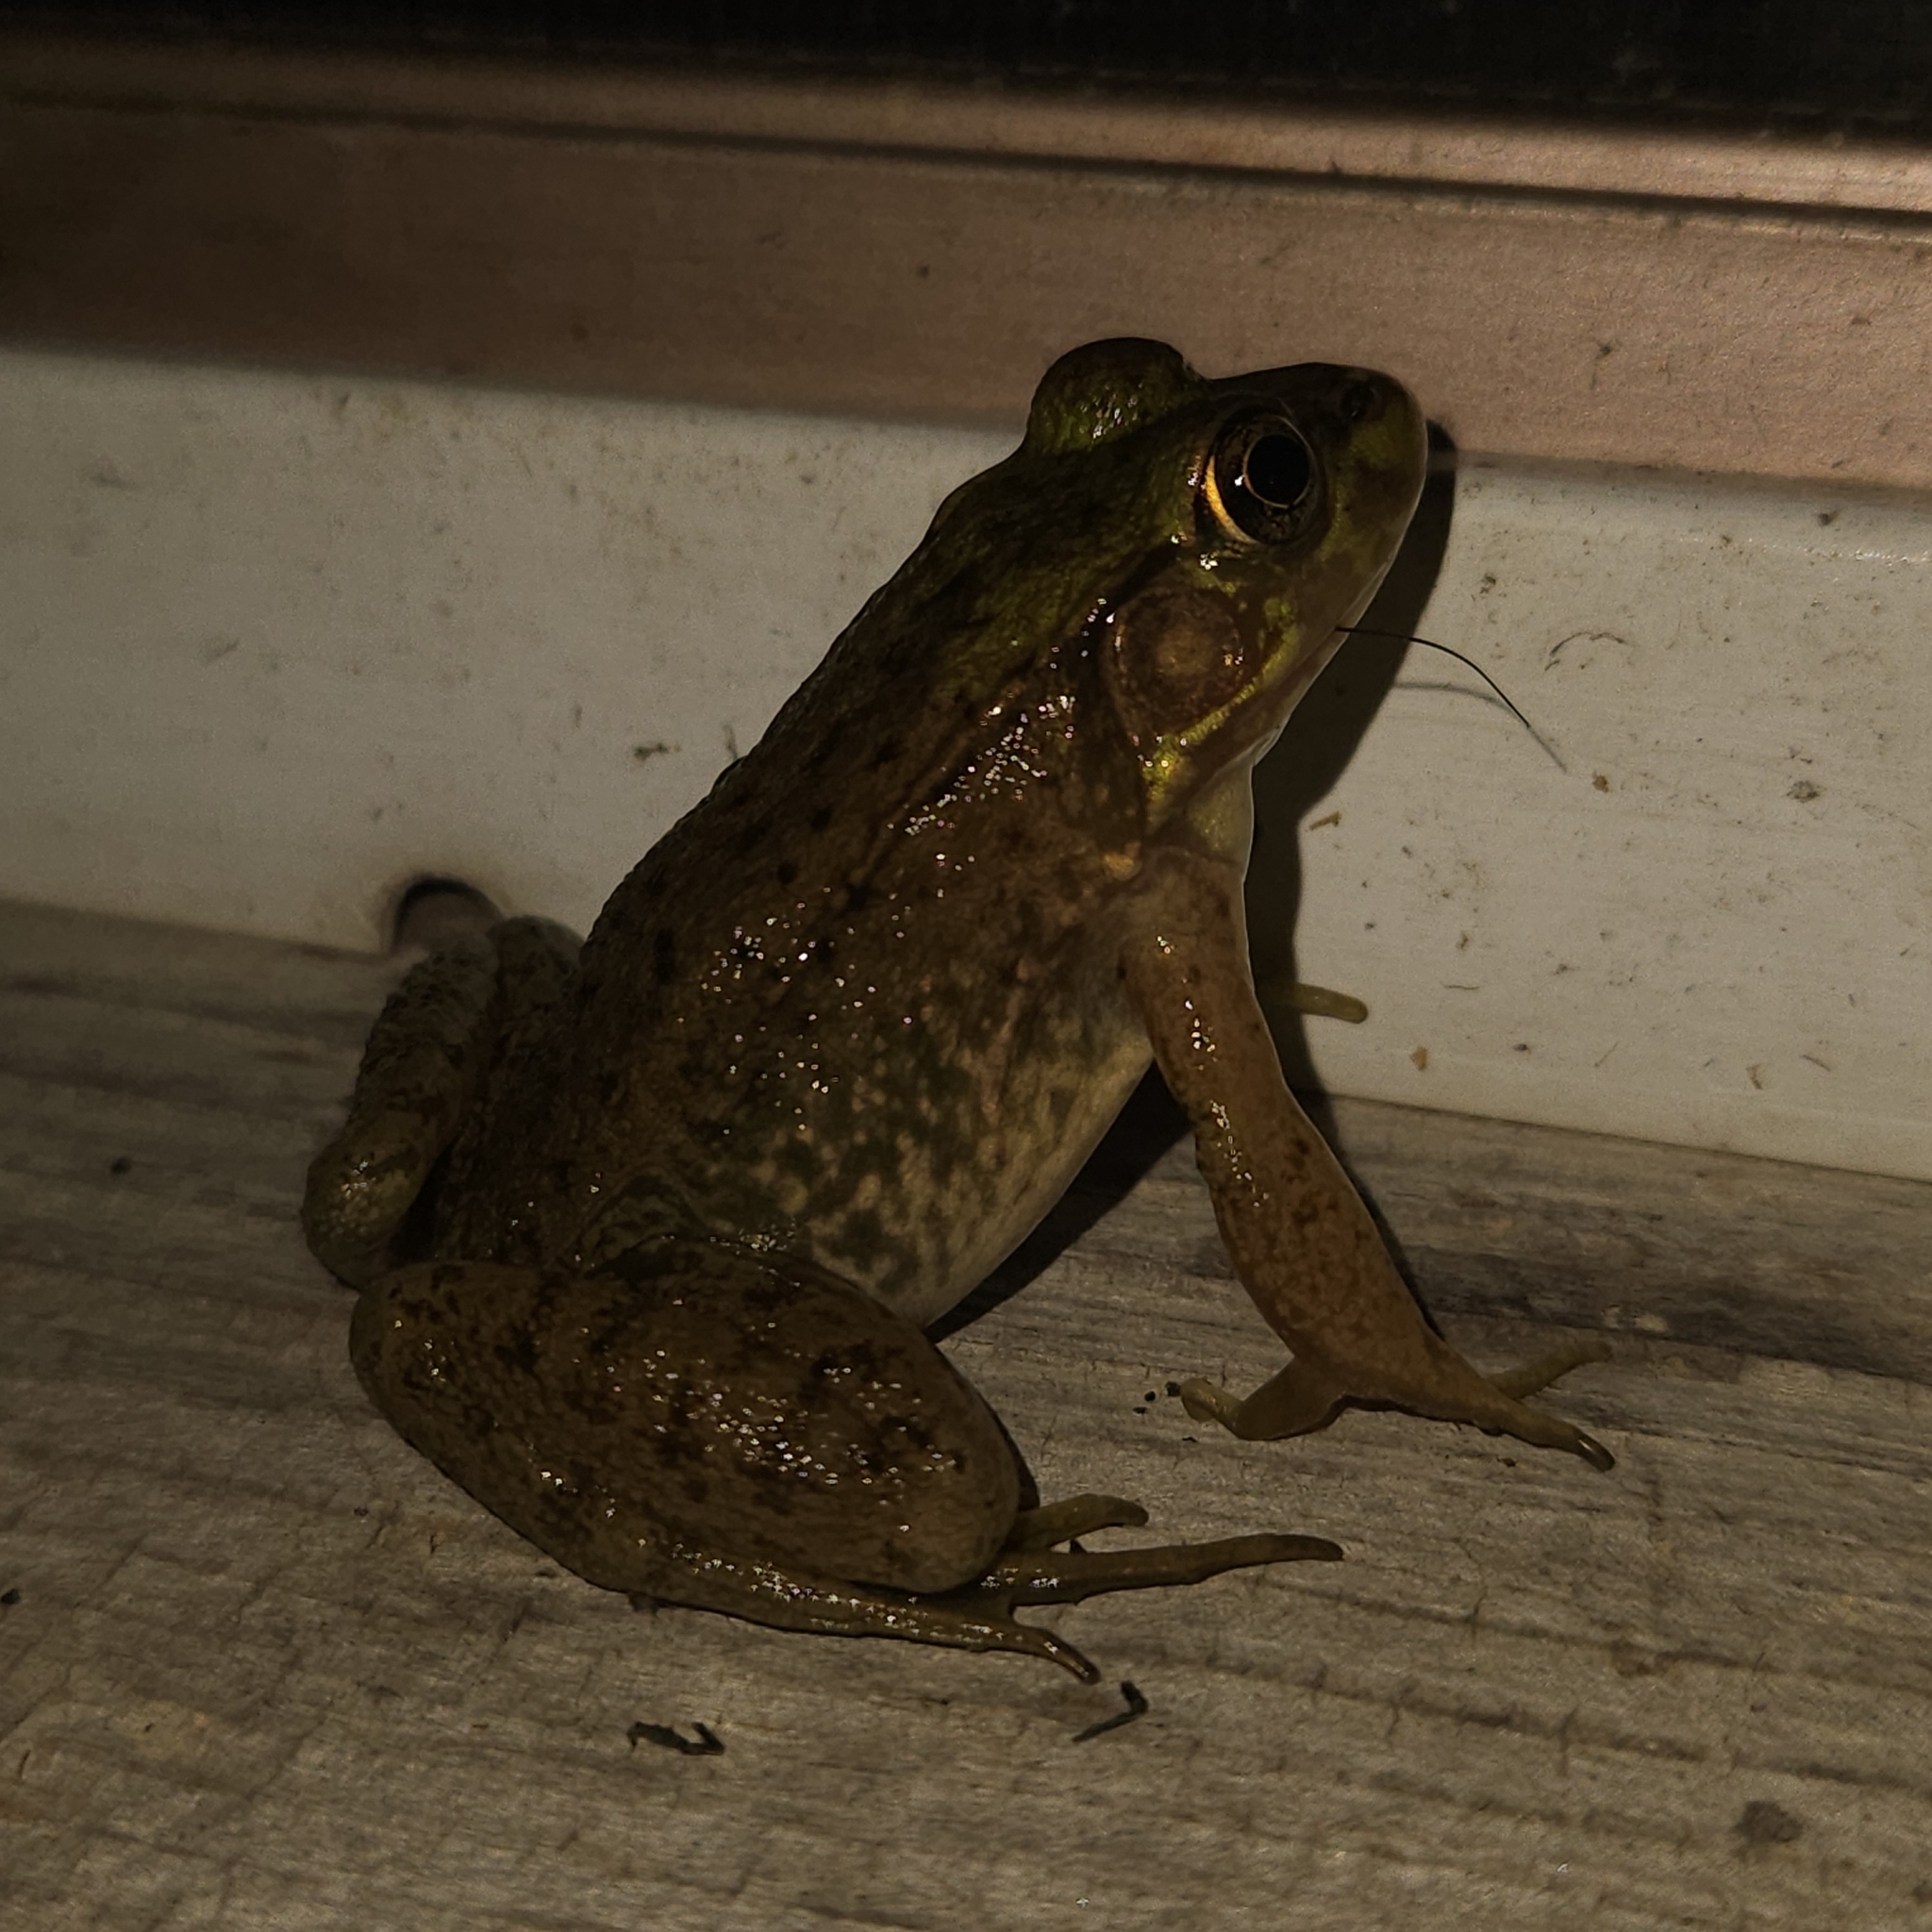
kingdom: Animalia
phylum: Chordata
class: Amphibia
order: Anura
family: Ranidae
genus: Lithobates
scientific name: Lithobates clamitans
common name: Green frog
